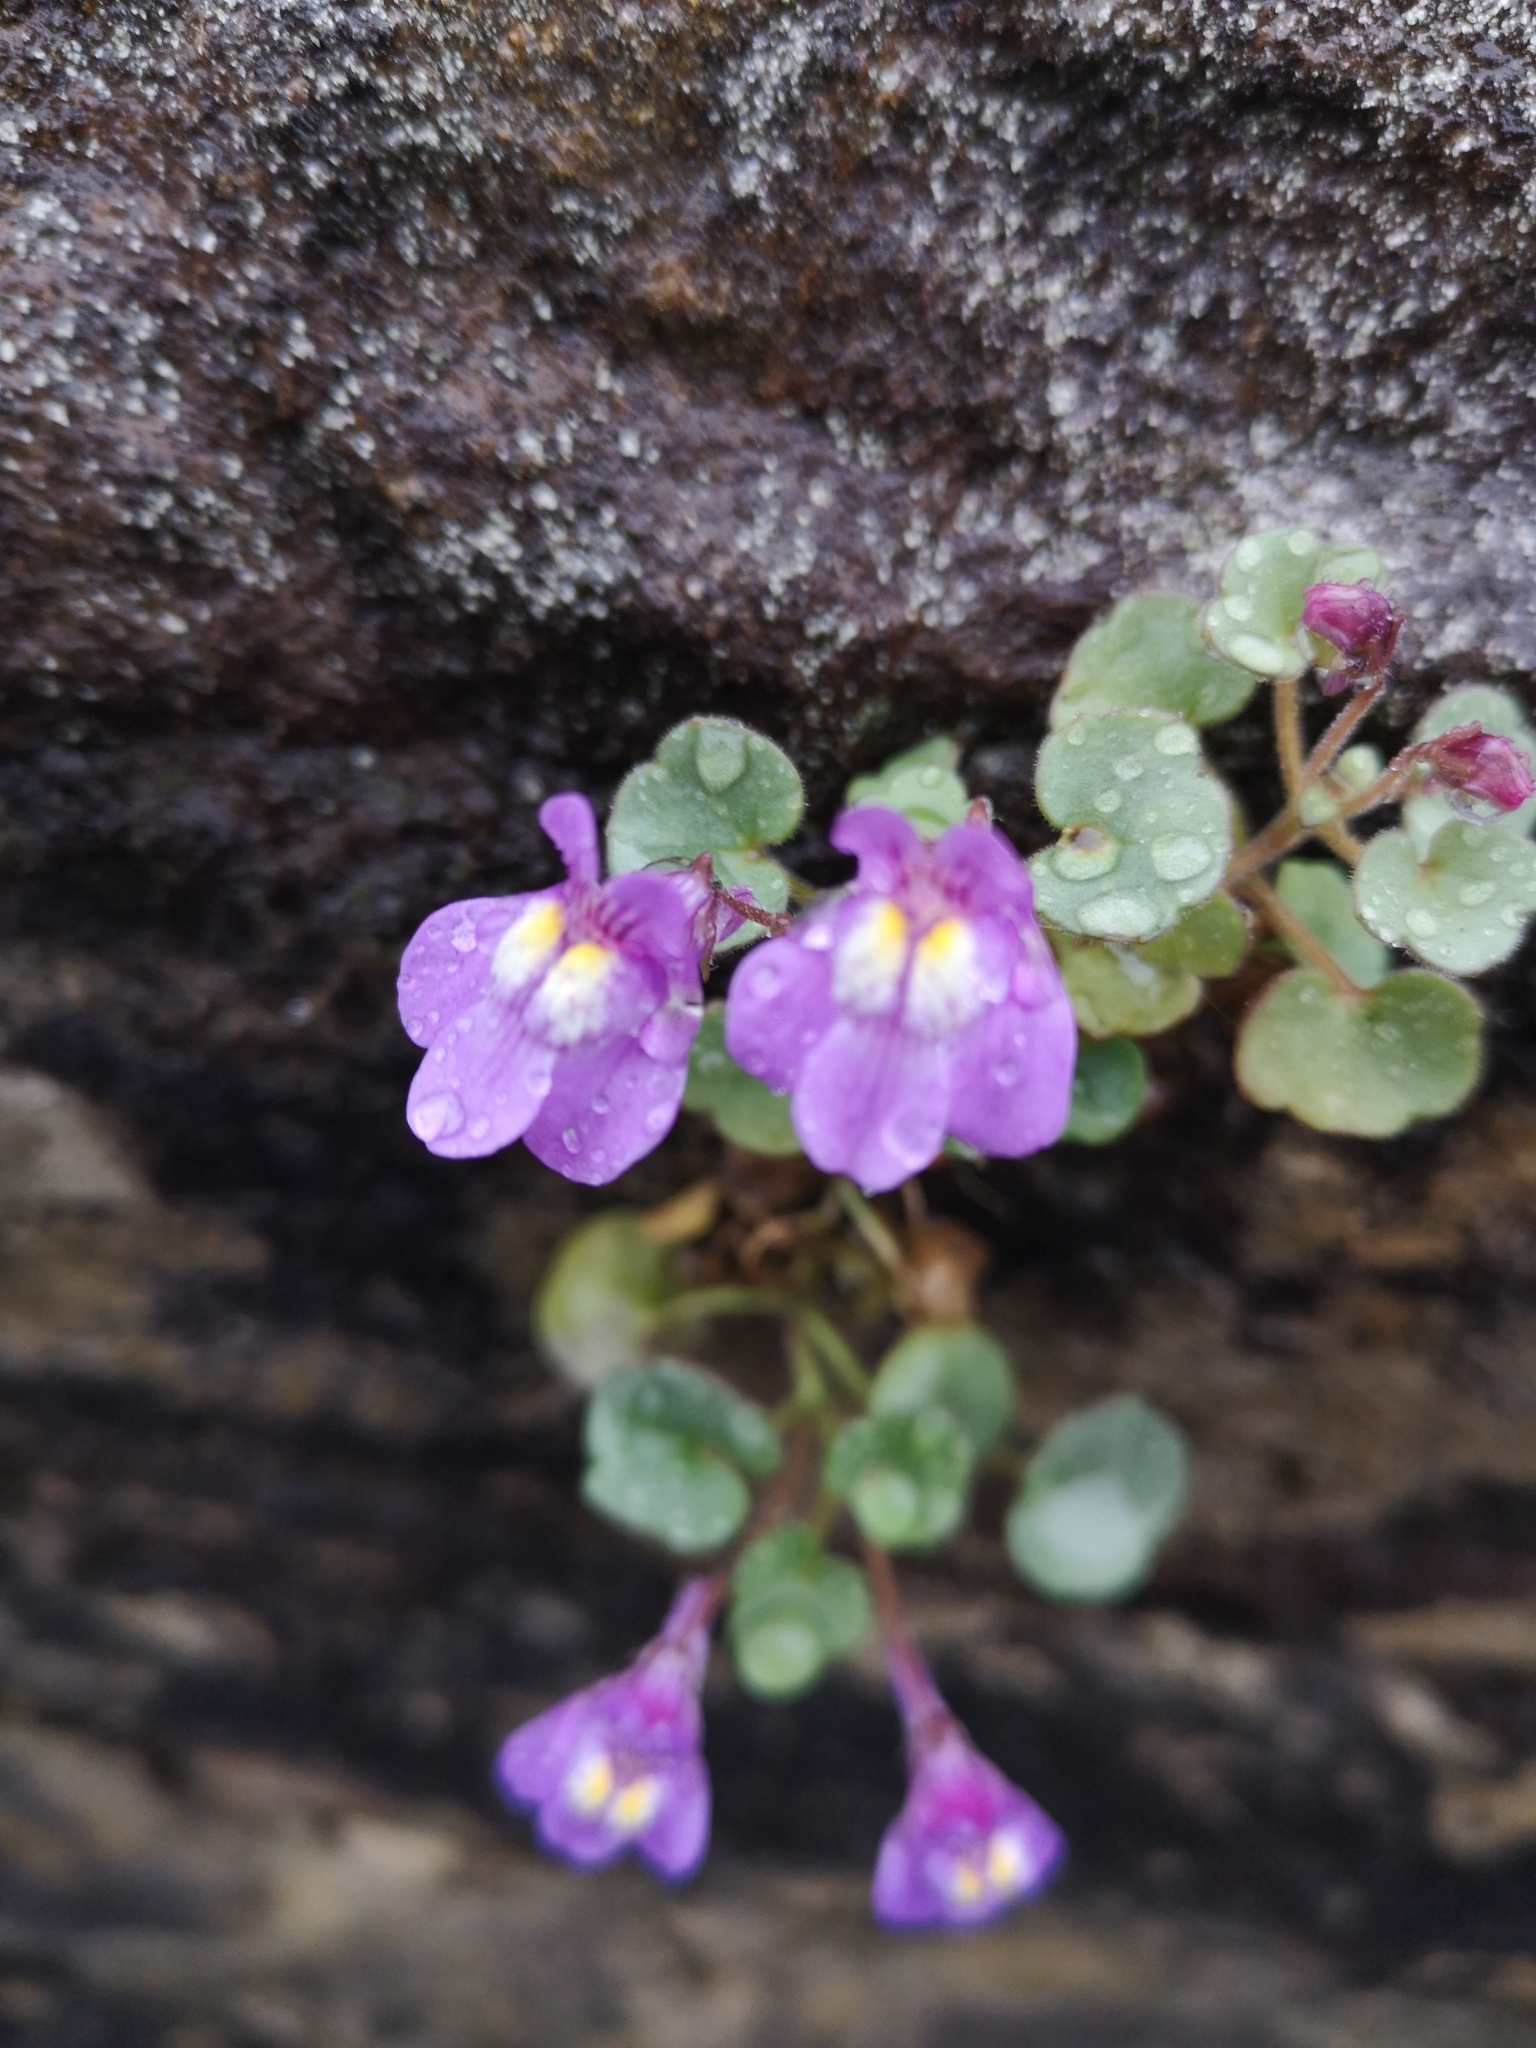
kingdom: Plantae
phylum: Tracheophyta
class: Magnoliopsida
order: Lamiales
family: Plantaginaceae
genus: Cymbalaria
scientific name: Cymbalaria pallida
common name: Italian toadflax
